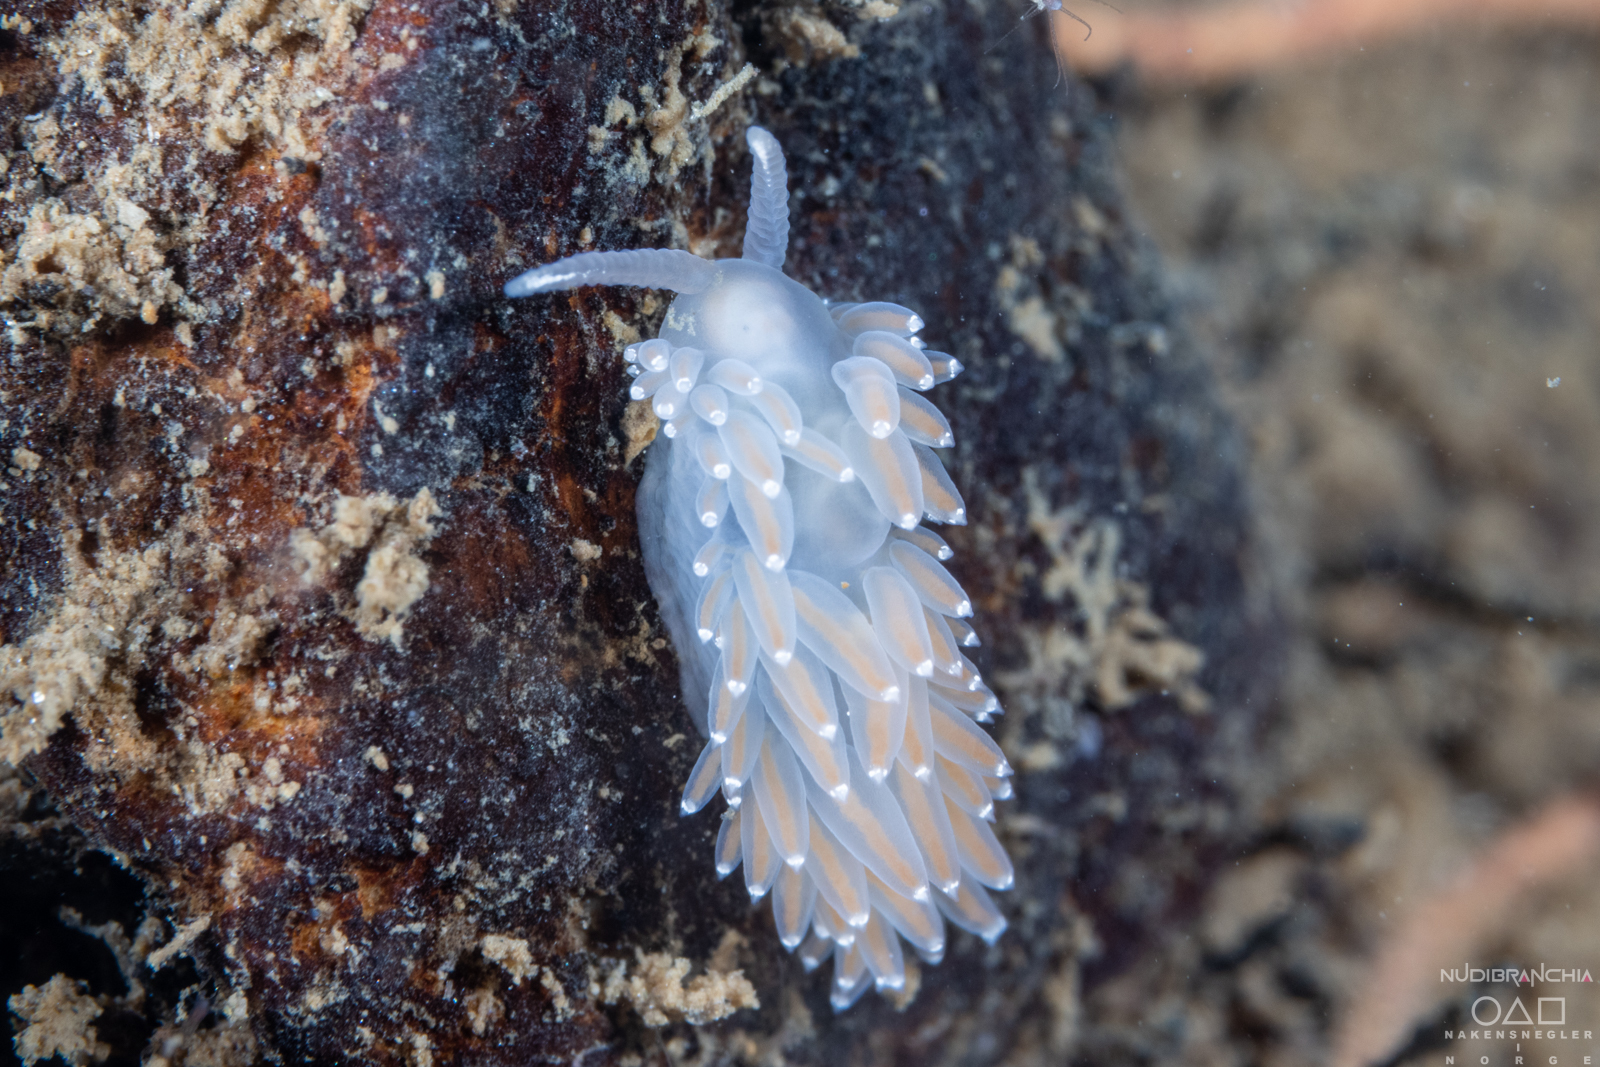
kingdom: Animalia
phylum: Mollusca
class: Gastropoda
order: Nudibranchia
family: Coryphellidae
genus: Coryphella
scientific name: Coryphella verrucosa
